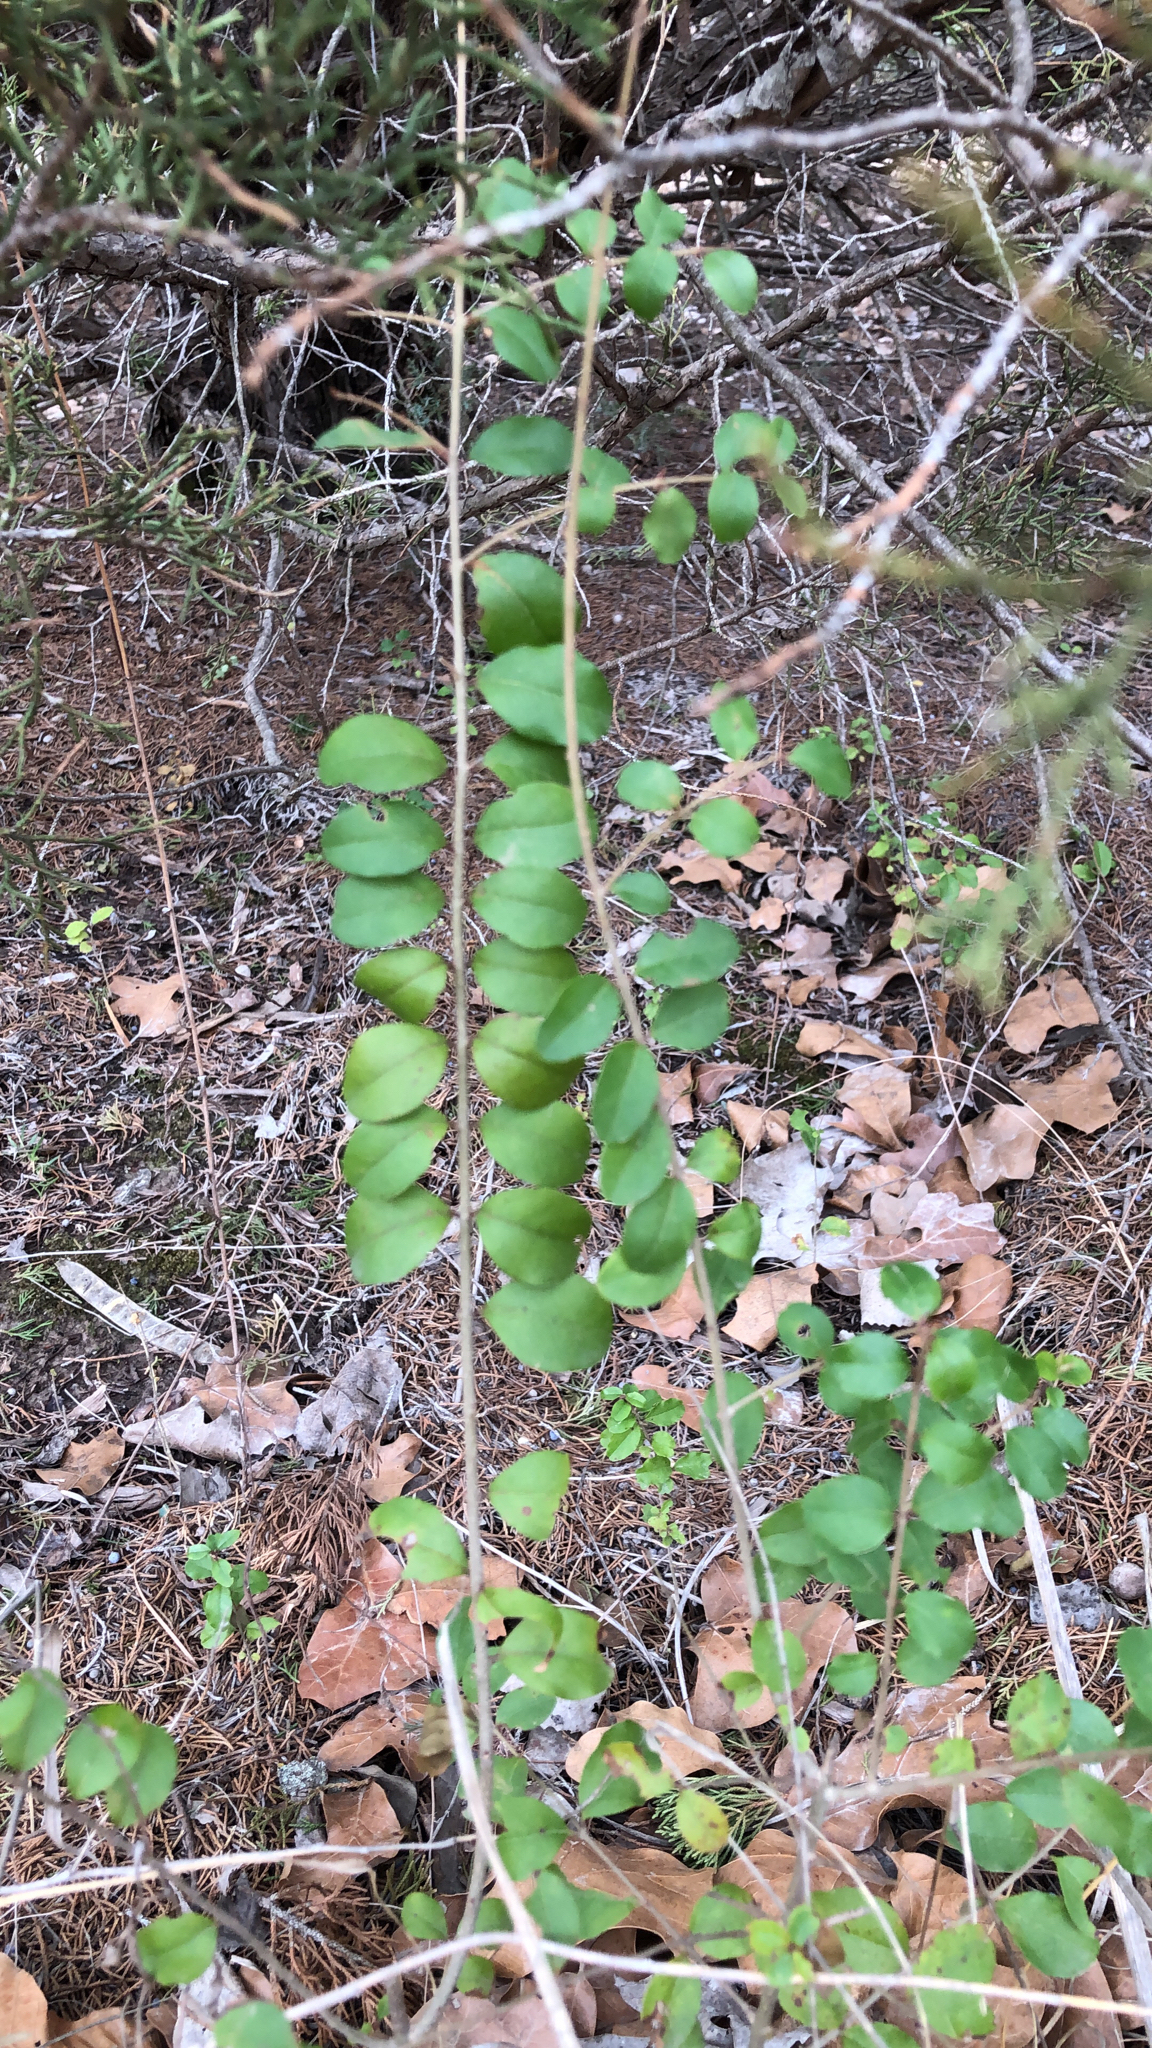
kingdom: Plantae
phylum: Tracheophyta
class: Magnoliopsida
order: Lamiales
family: Oleaceae
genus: Ligustrum
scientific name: Ligustrum sinense
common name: Chinese privet
